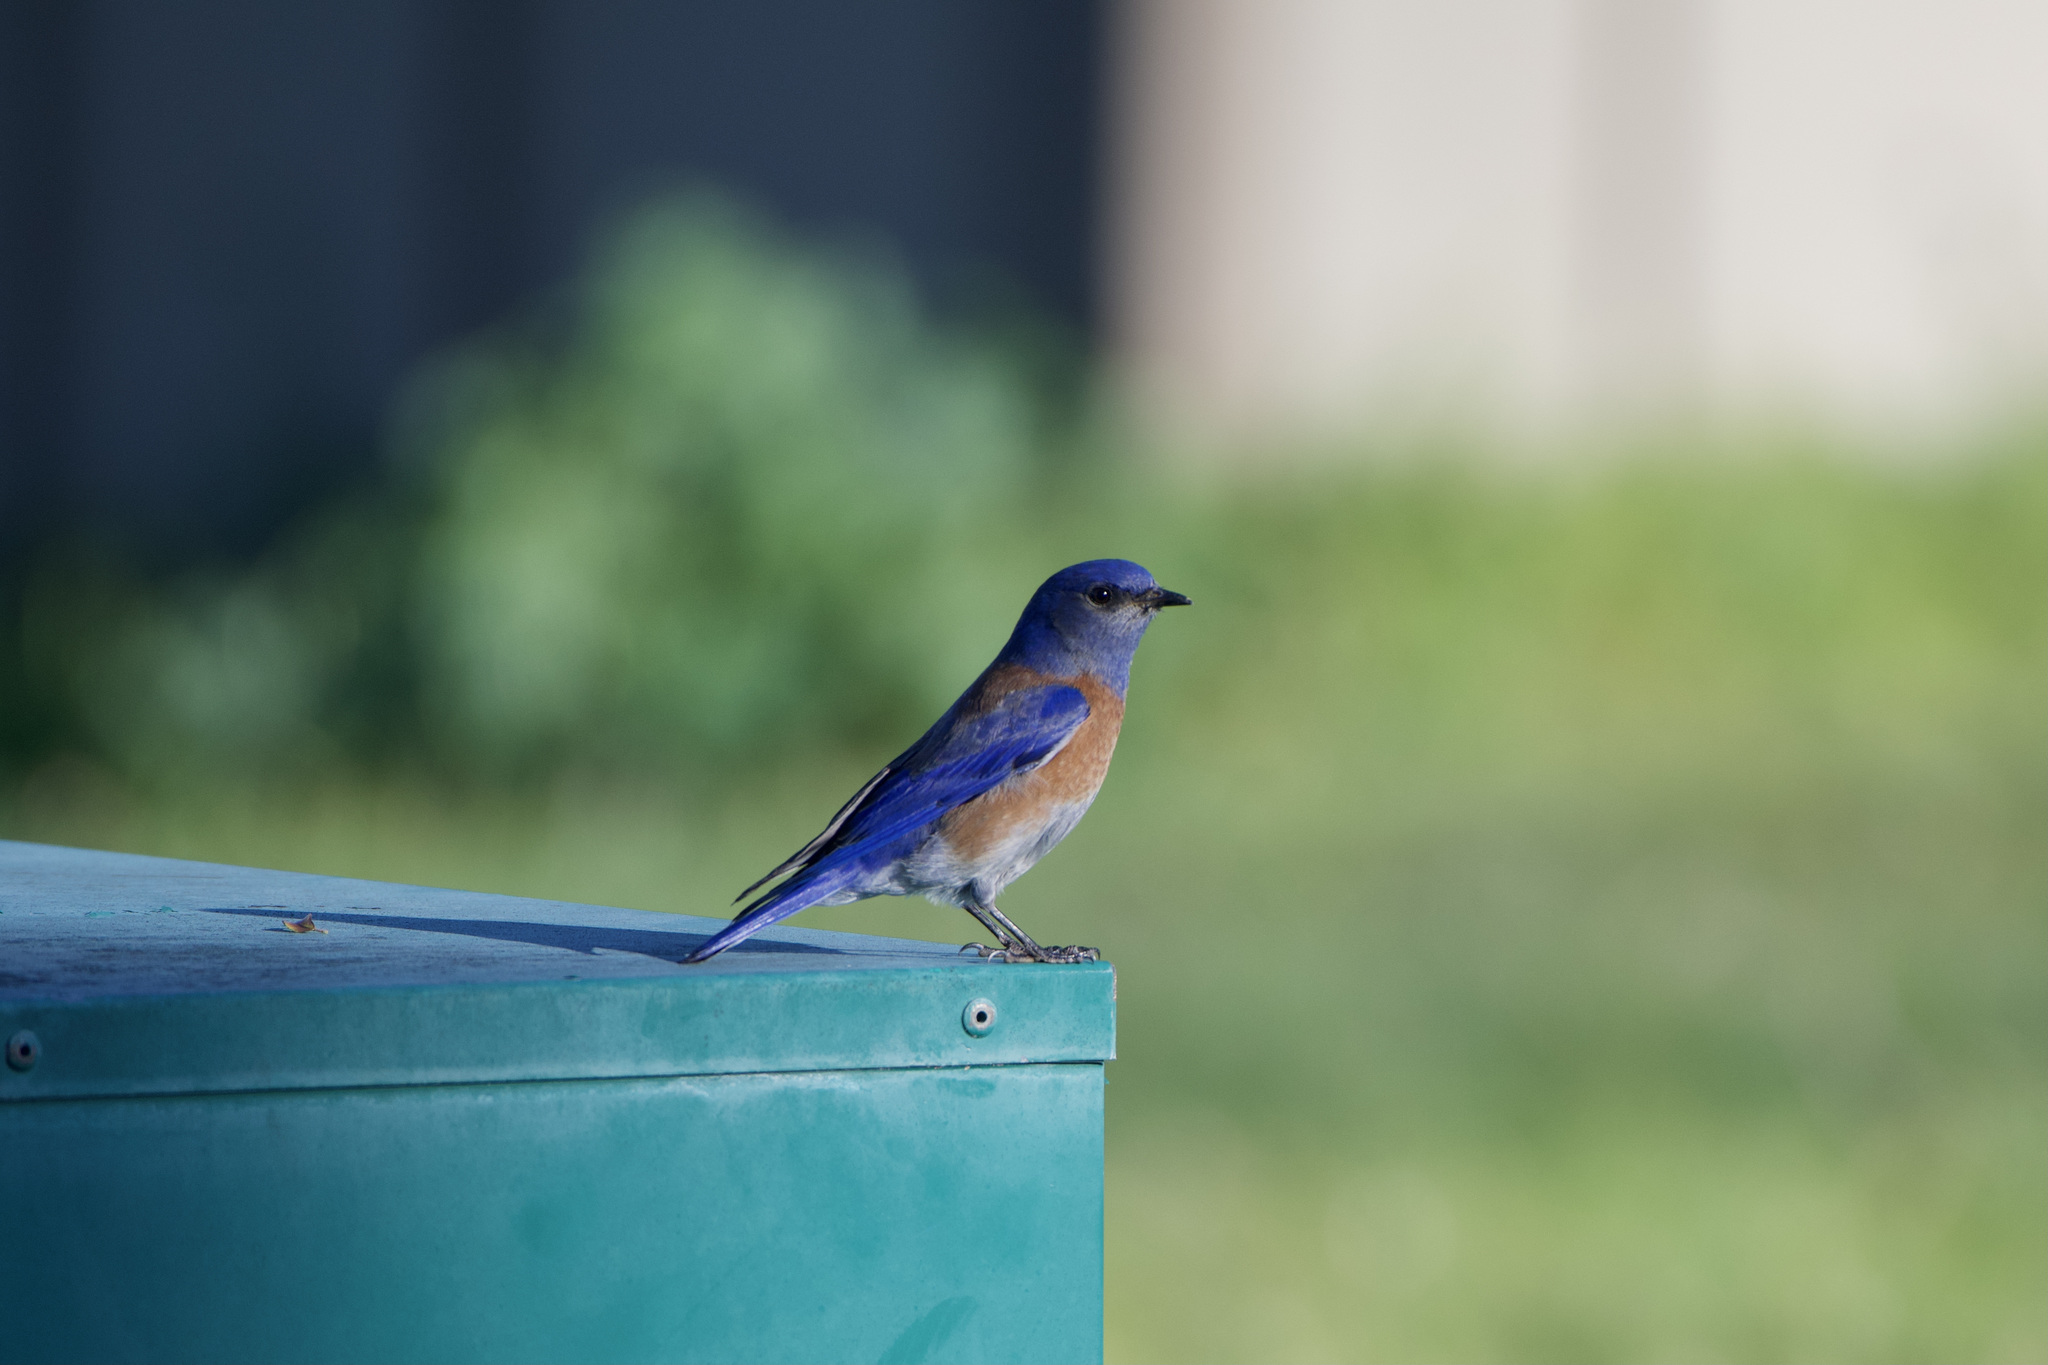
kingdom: Animalia
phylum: Chordata
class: Aves
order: Passeriformes
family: Turdidae
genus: Sialia
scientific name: Sialia mexicana
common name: Western bluebird
